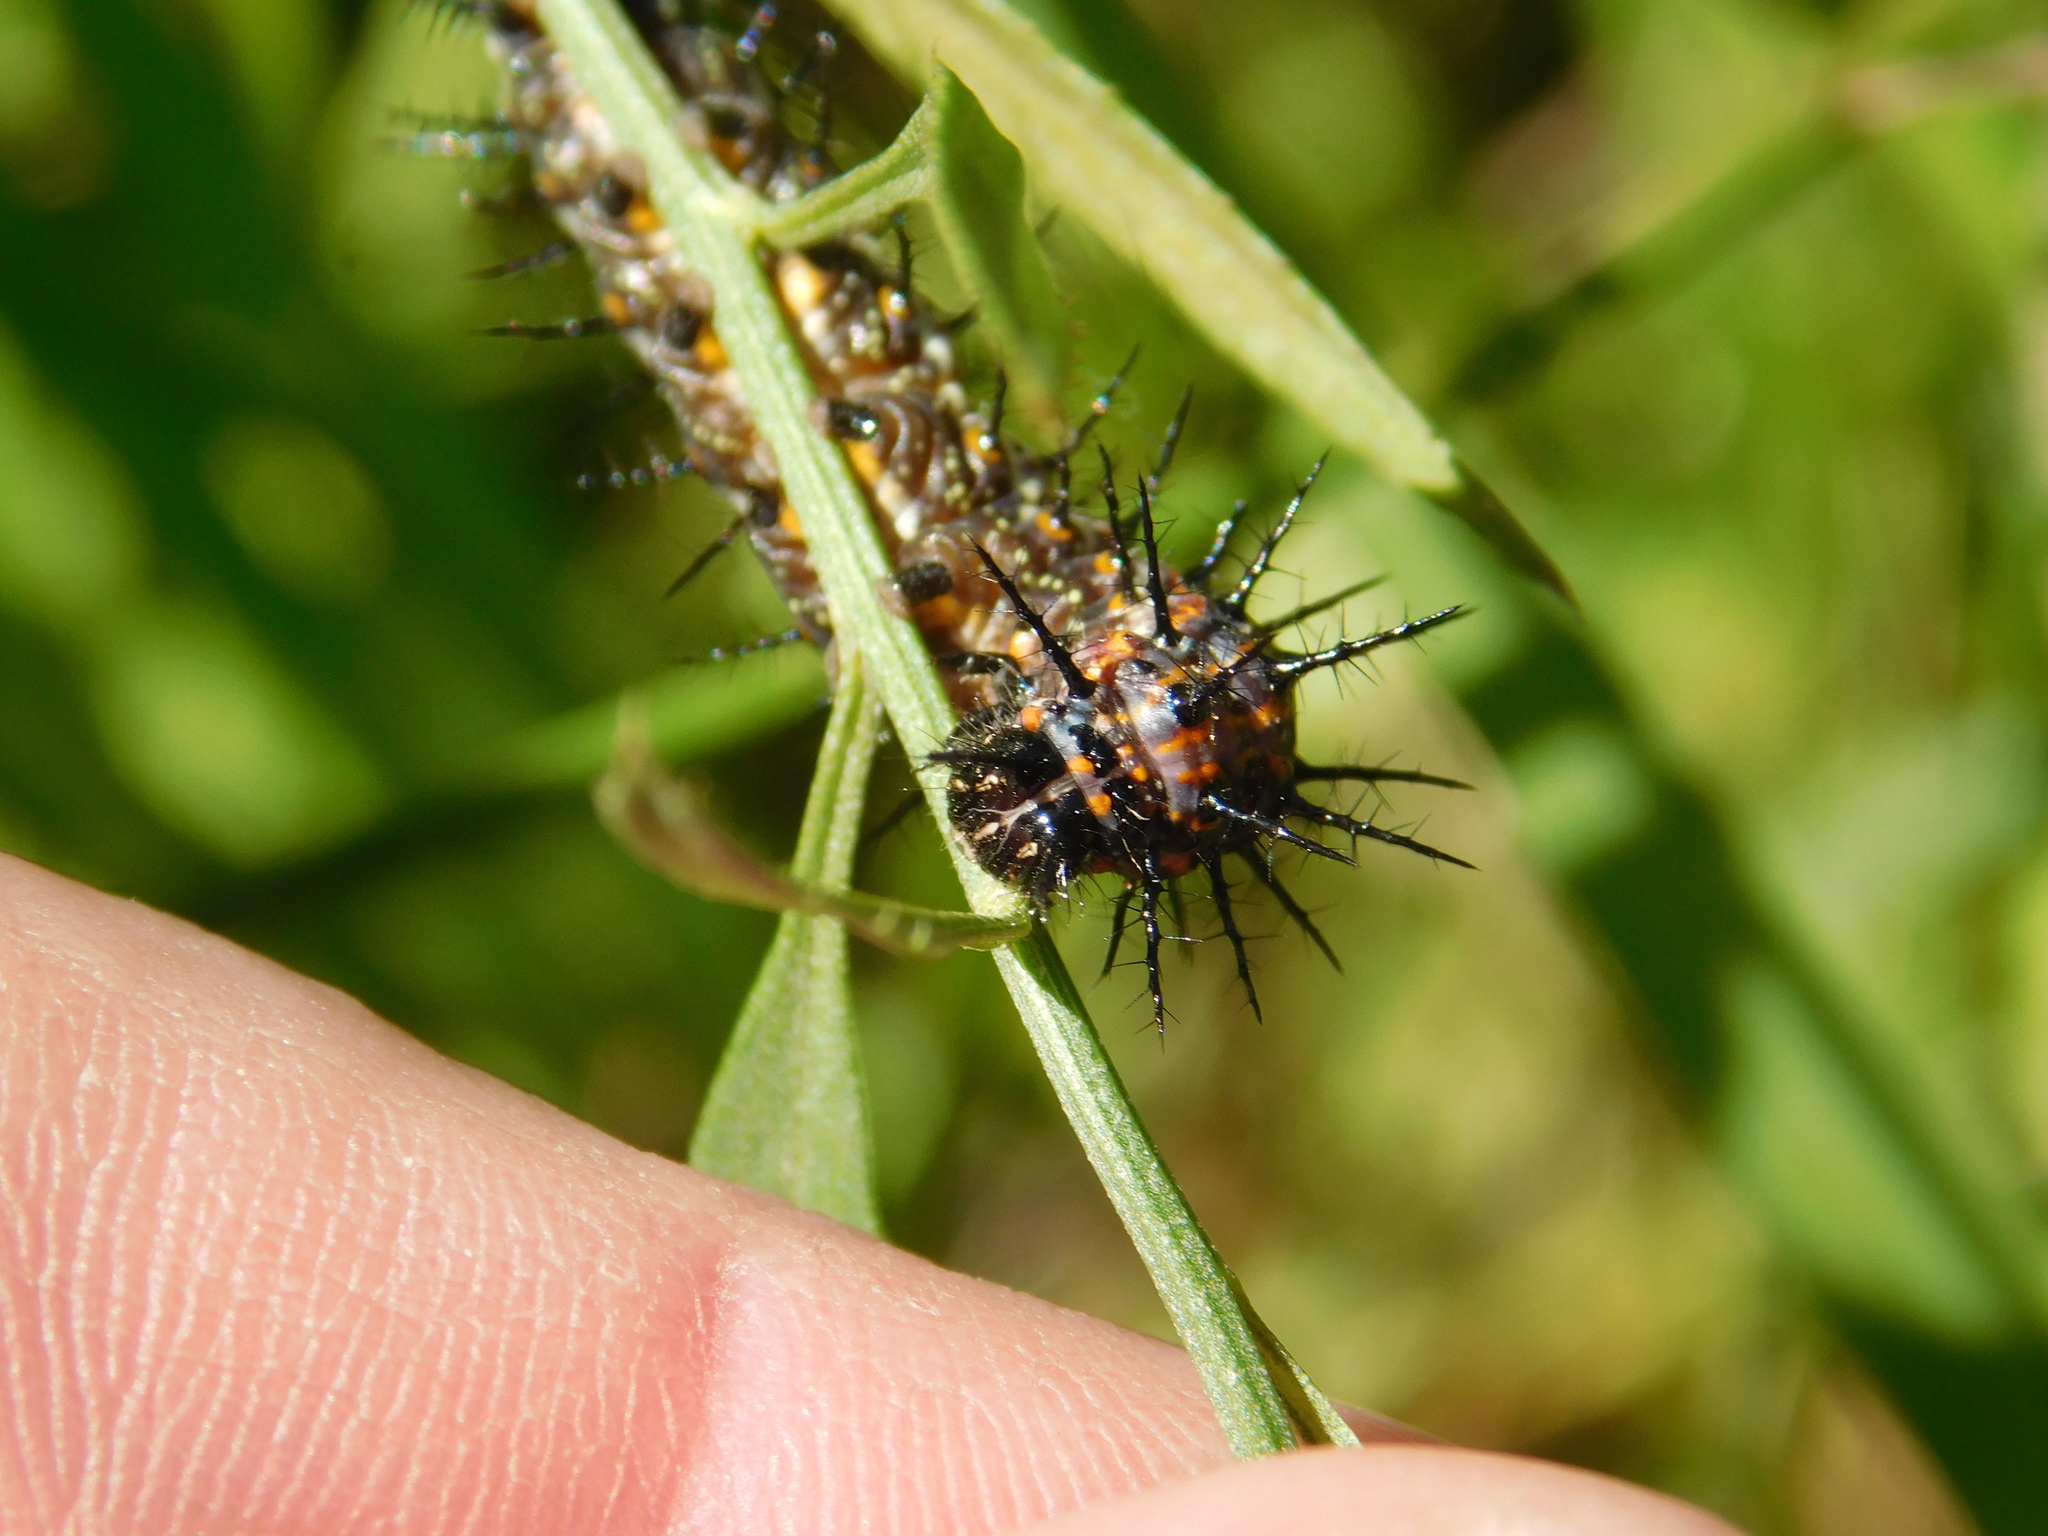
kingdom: Animalia
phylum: Arthropoda
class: Insecta
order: Lepidoptera
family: Nymphalidae
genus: Dione
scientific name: Dione vanillae
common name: Gulf fritillary
